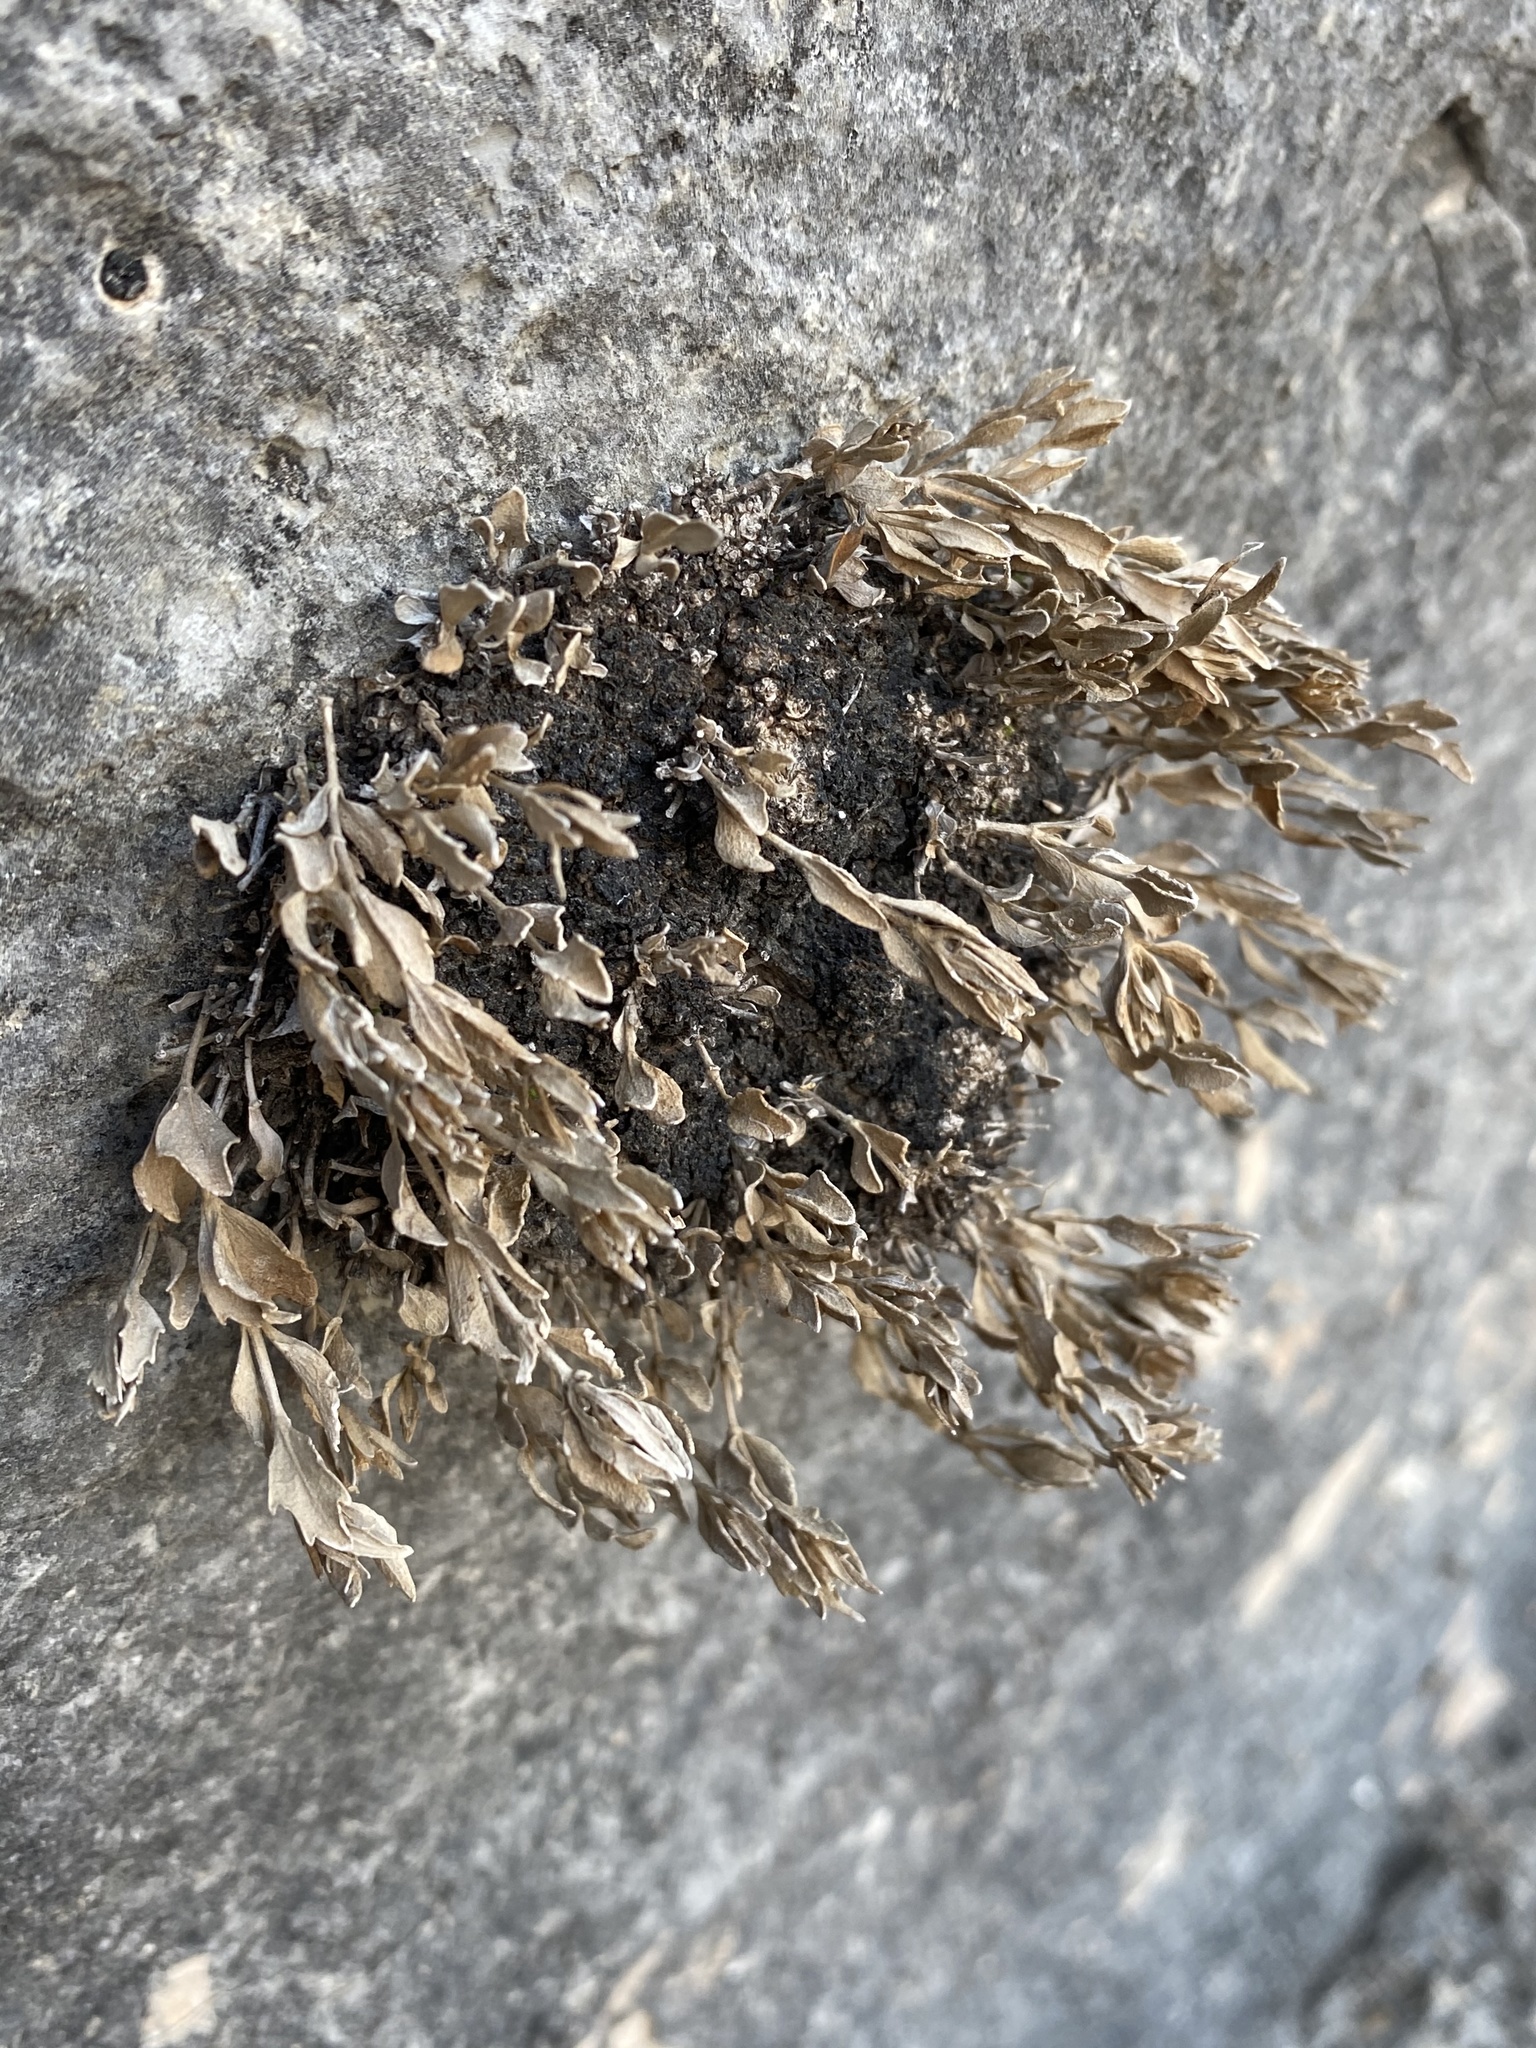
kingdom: Plantae
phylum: Tracheophyta
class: Magnoliopsida
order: Asterales
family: Asteraceae
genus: Laphamia
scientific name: Laphamia bisetosa
